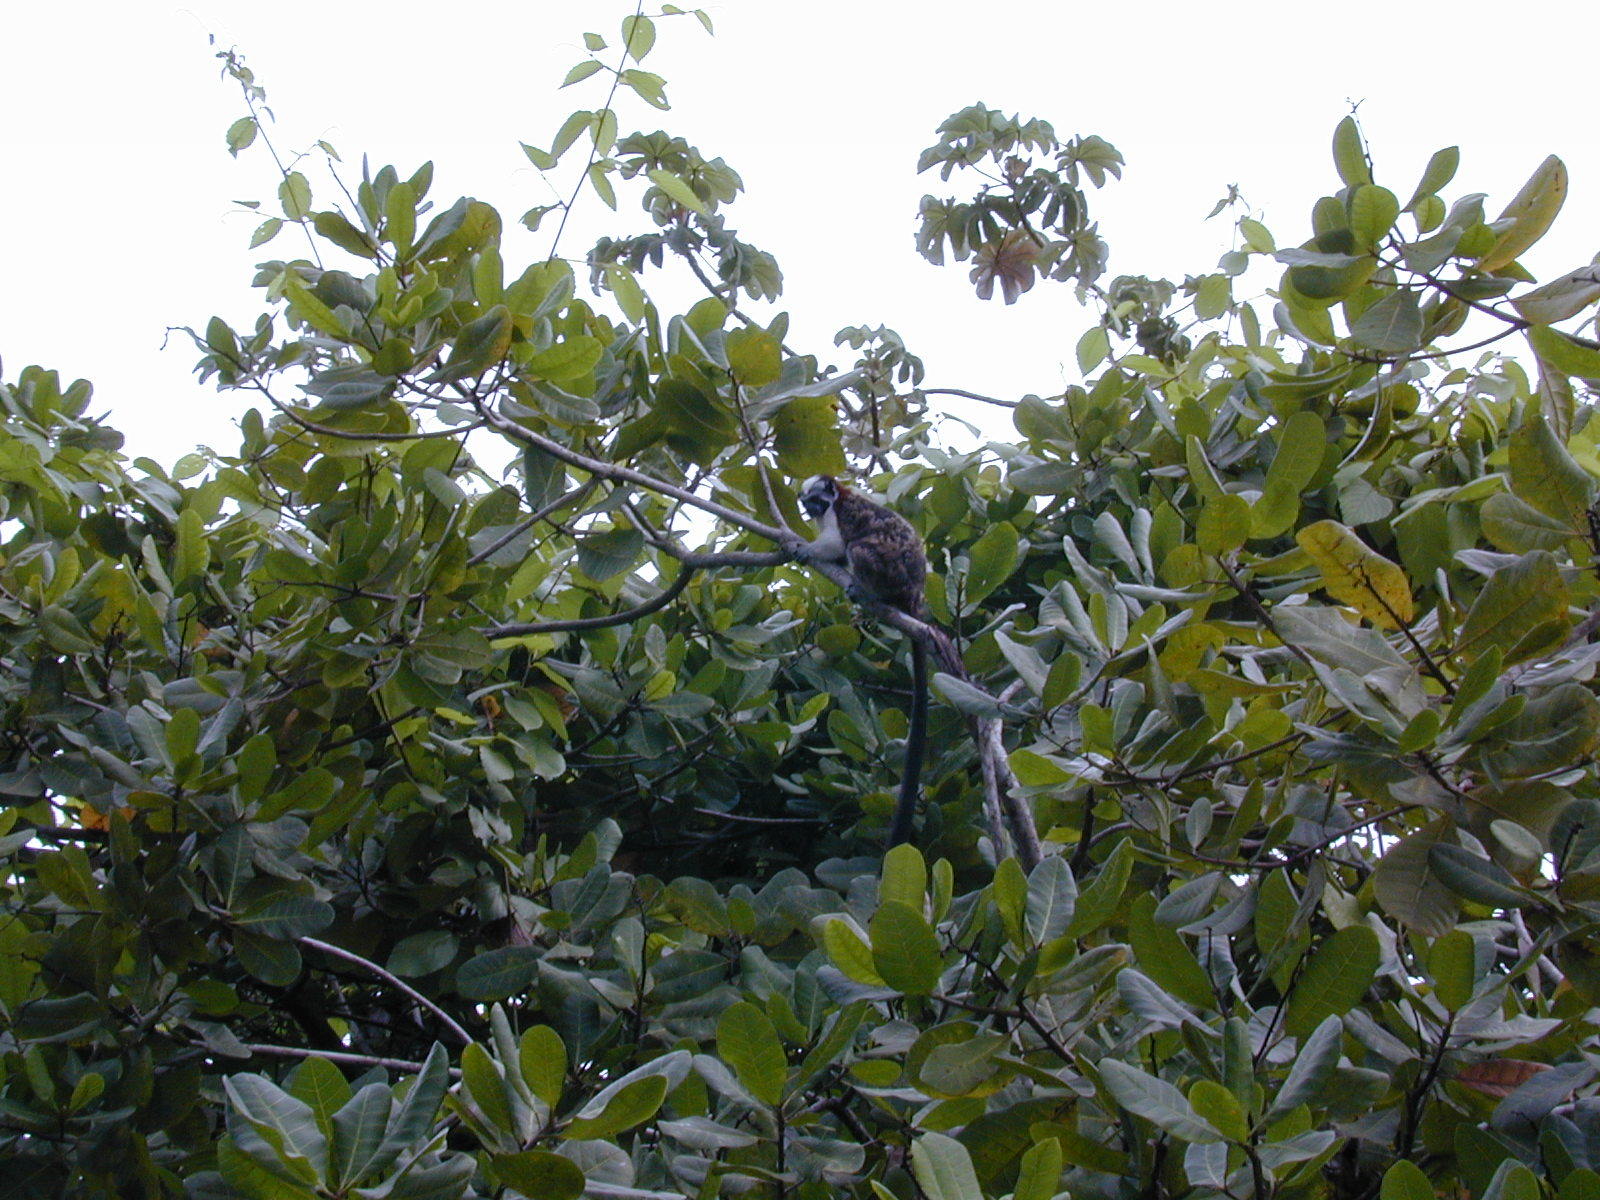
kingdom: Animalia
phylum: Chordata
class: Mammalia
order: Primates
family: Callitrichidae
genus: Saguinus
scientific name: Saguinus geoffroyi
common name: Geoffroy s tamarin
